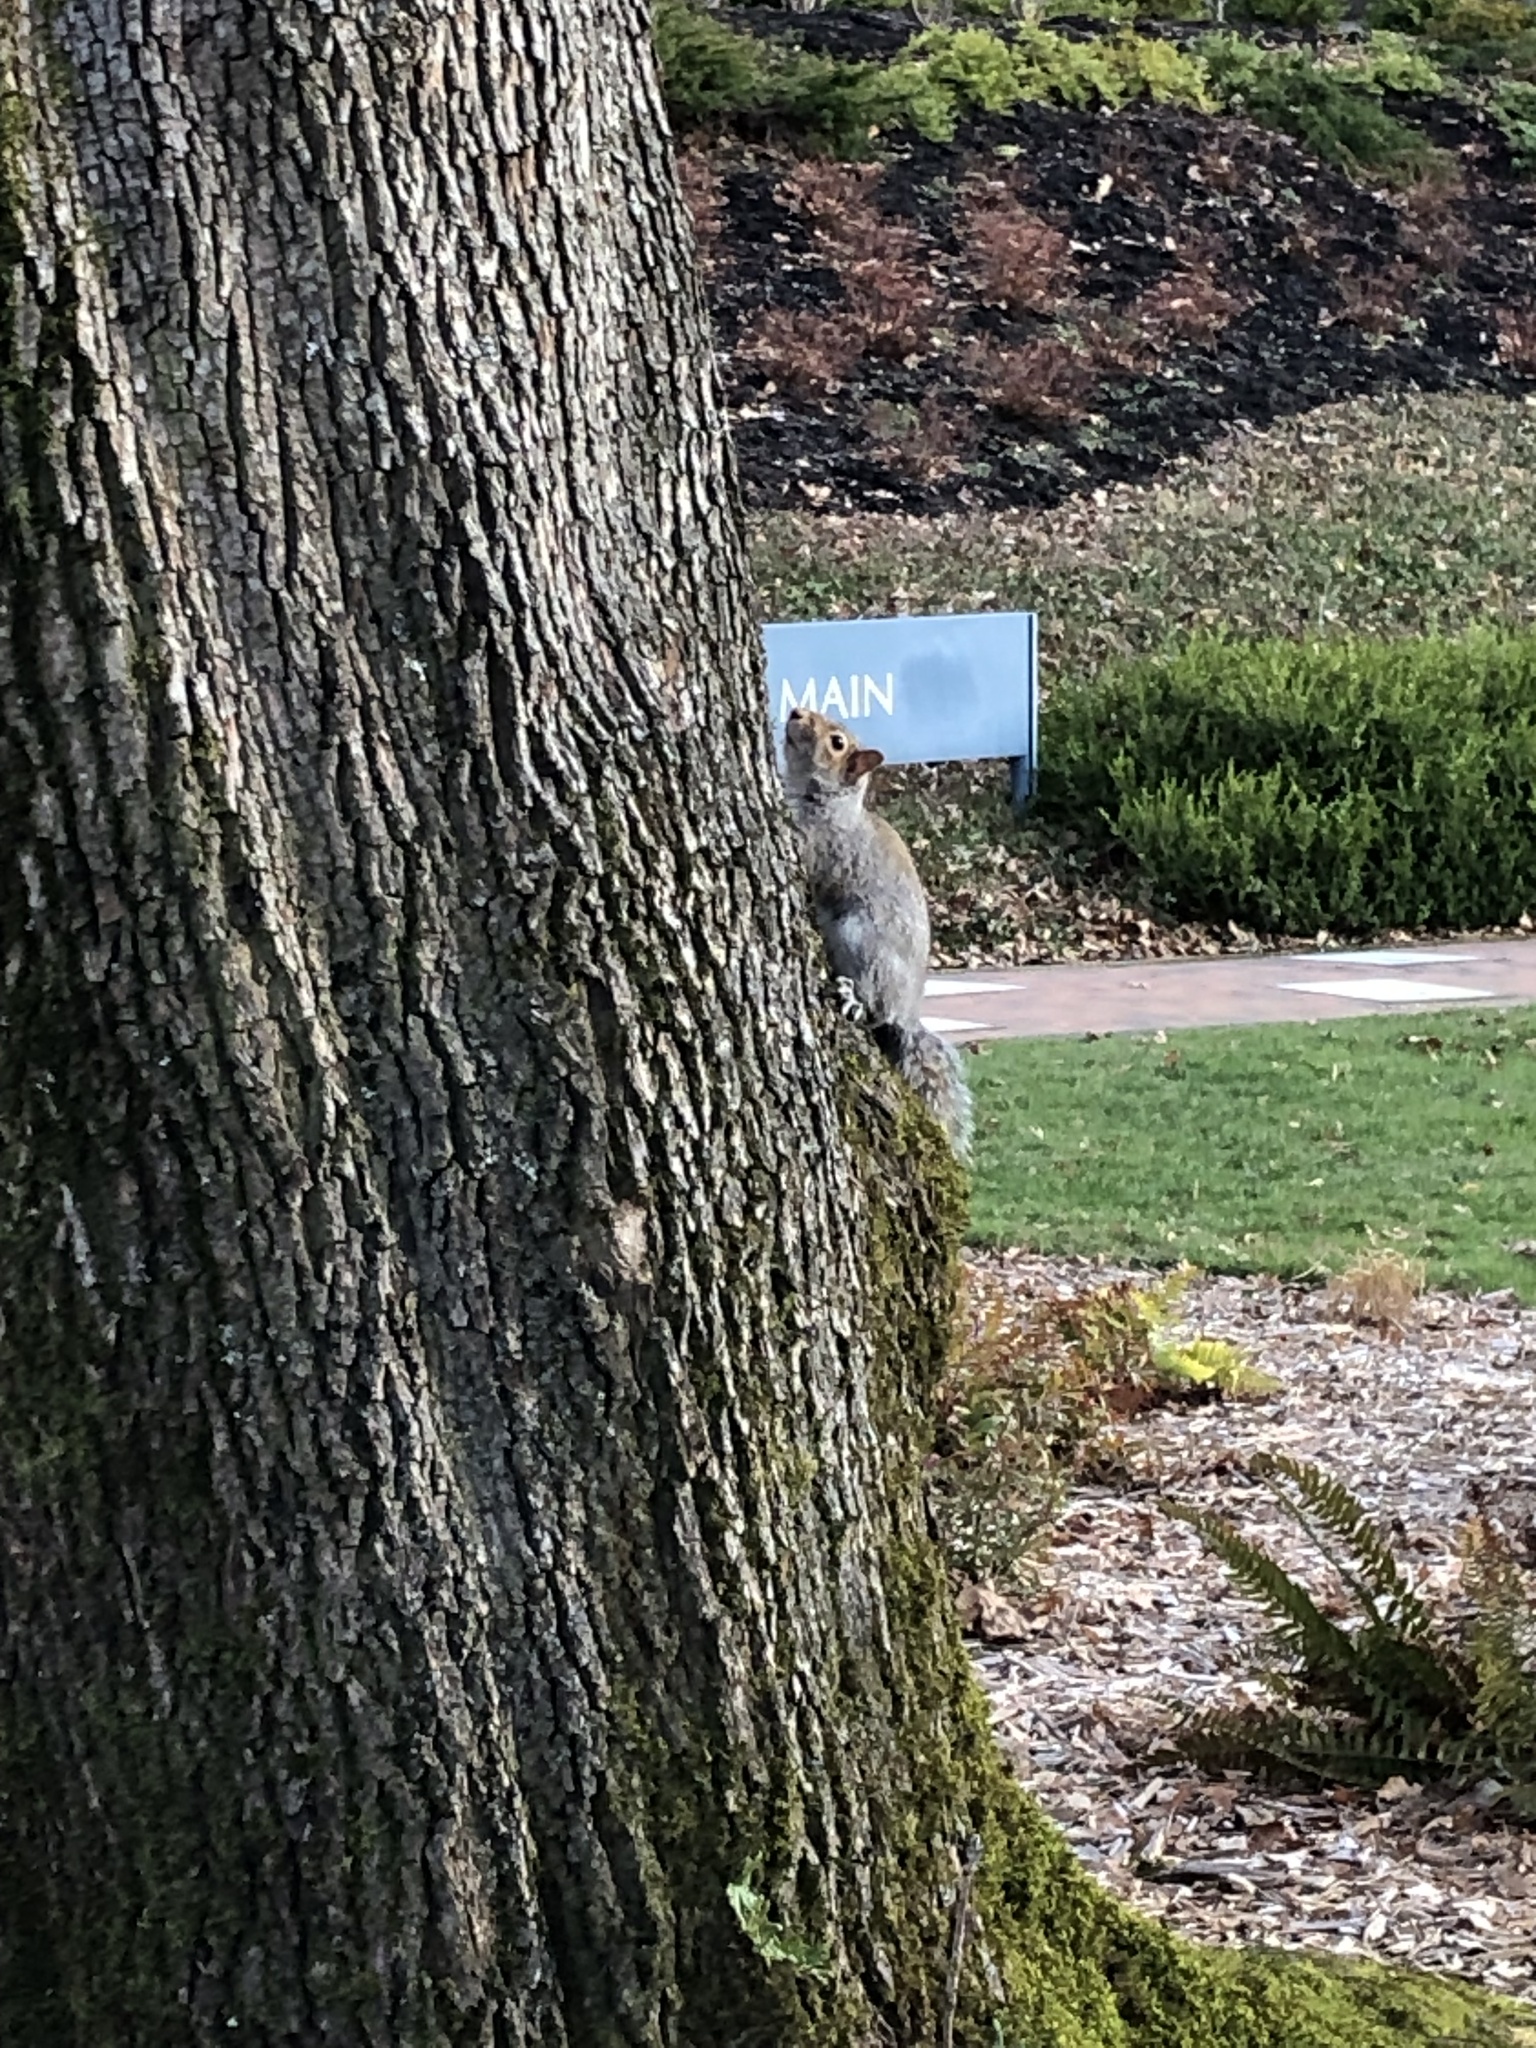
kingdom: Animalia
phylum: Chordata
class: Mammalia
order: Rodentia
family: Sciuridae
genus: Sciurus
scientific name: Sciurus carolinensis
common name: Eastern gray squirrel
